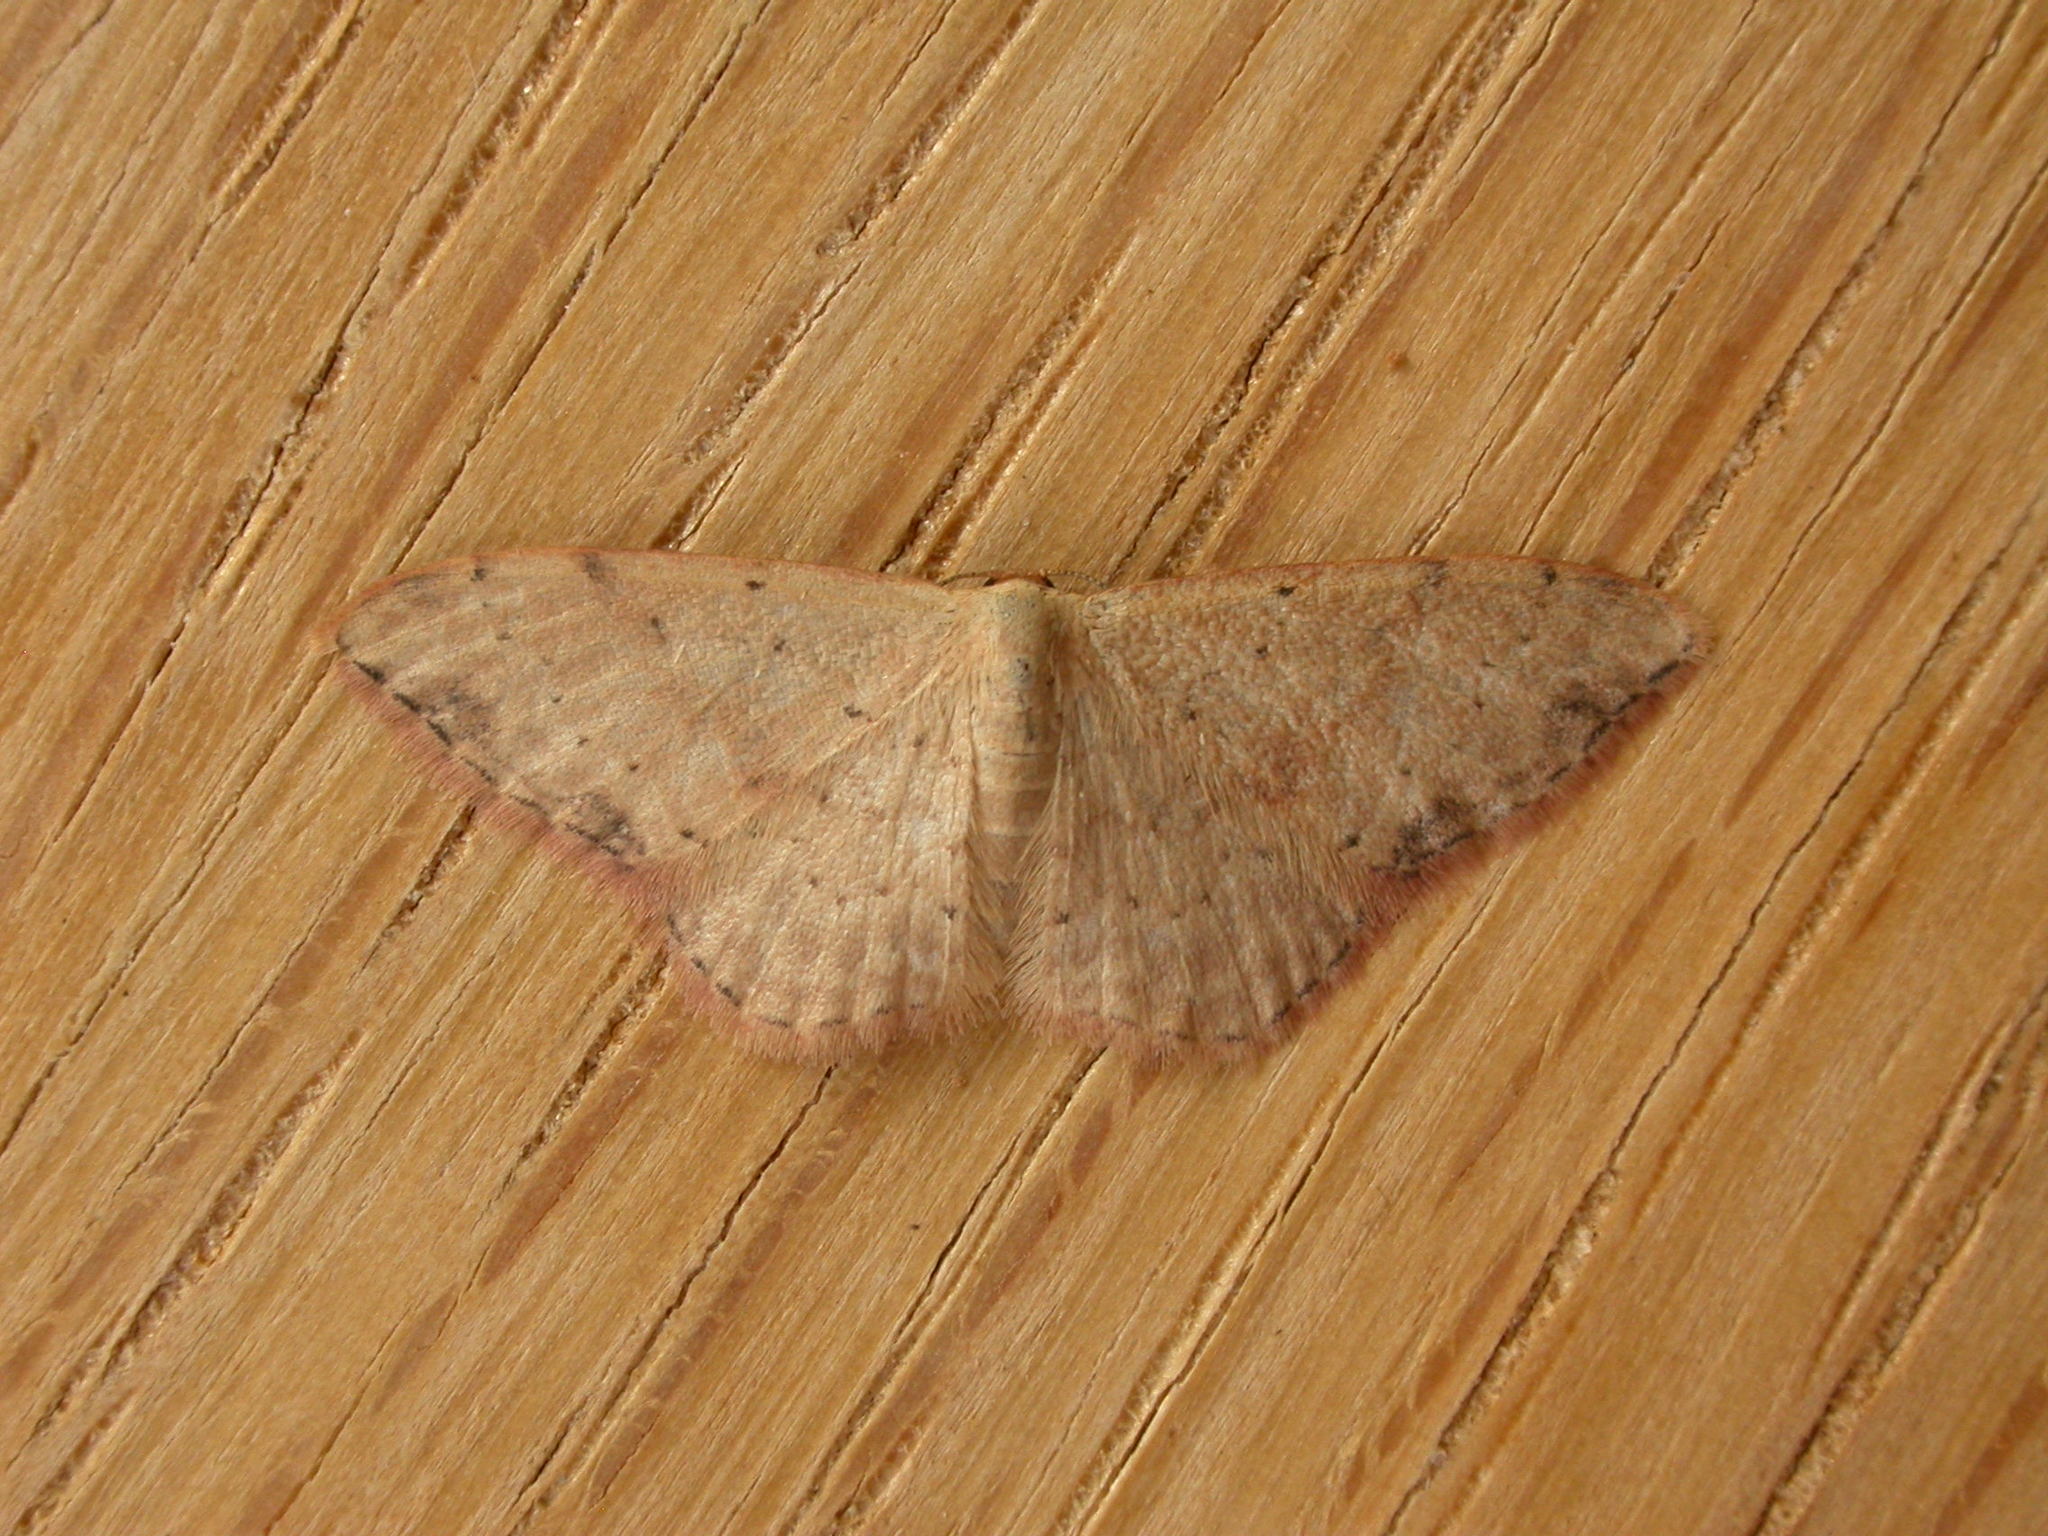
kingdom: Animalia
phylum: Arthropoda
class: Insecta
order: Lepidoptera
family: Geometridae
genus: Idaea
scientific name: Idaea halmaea
